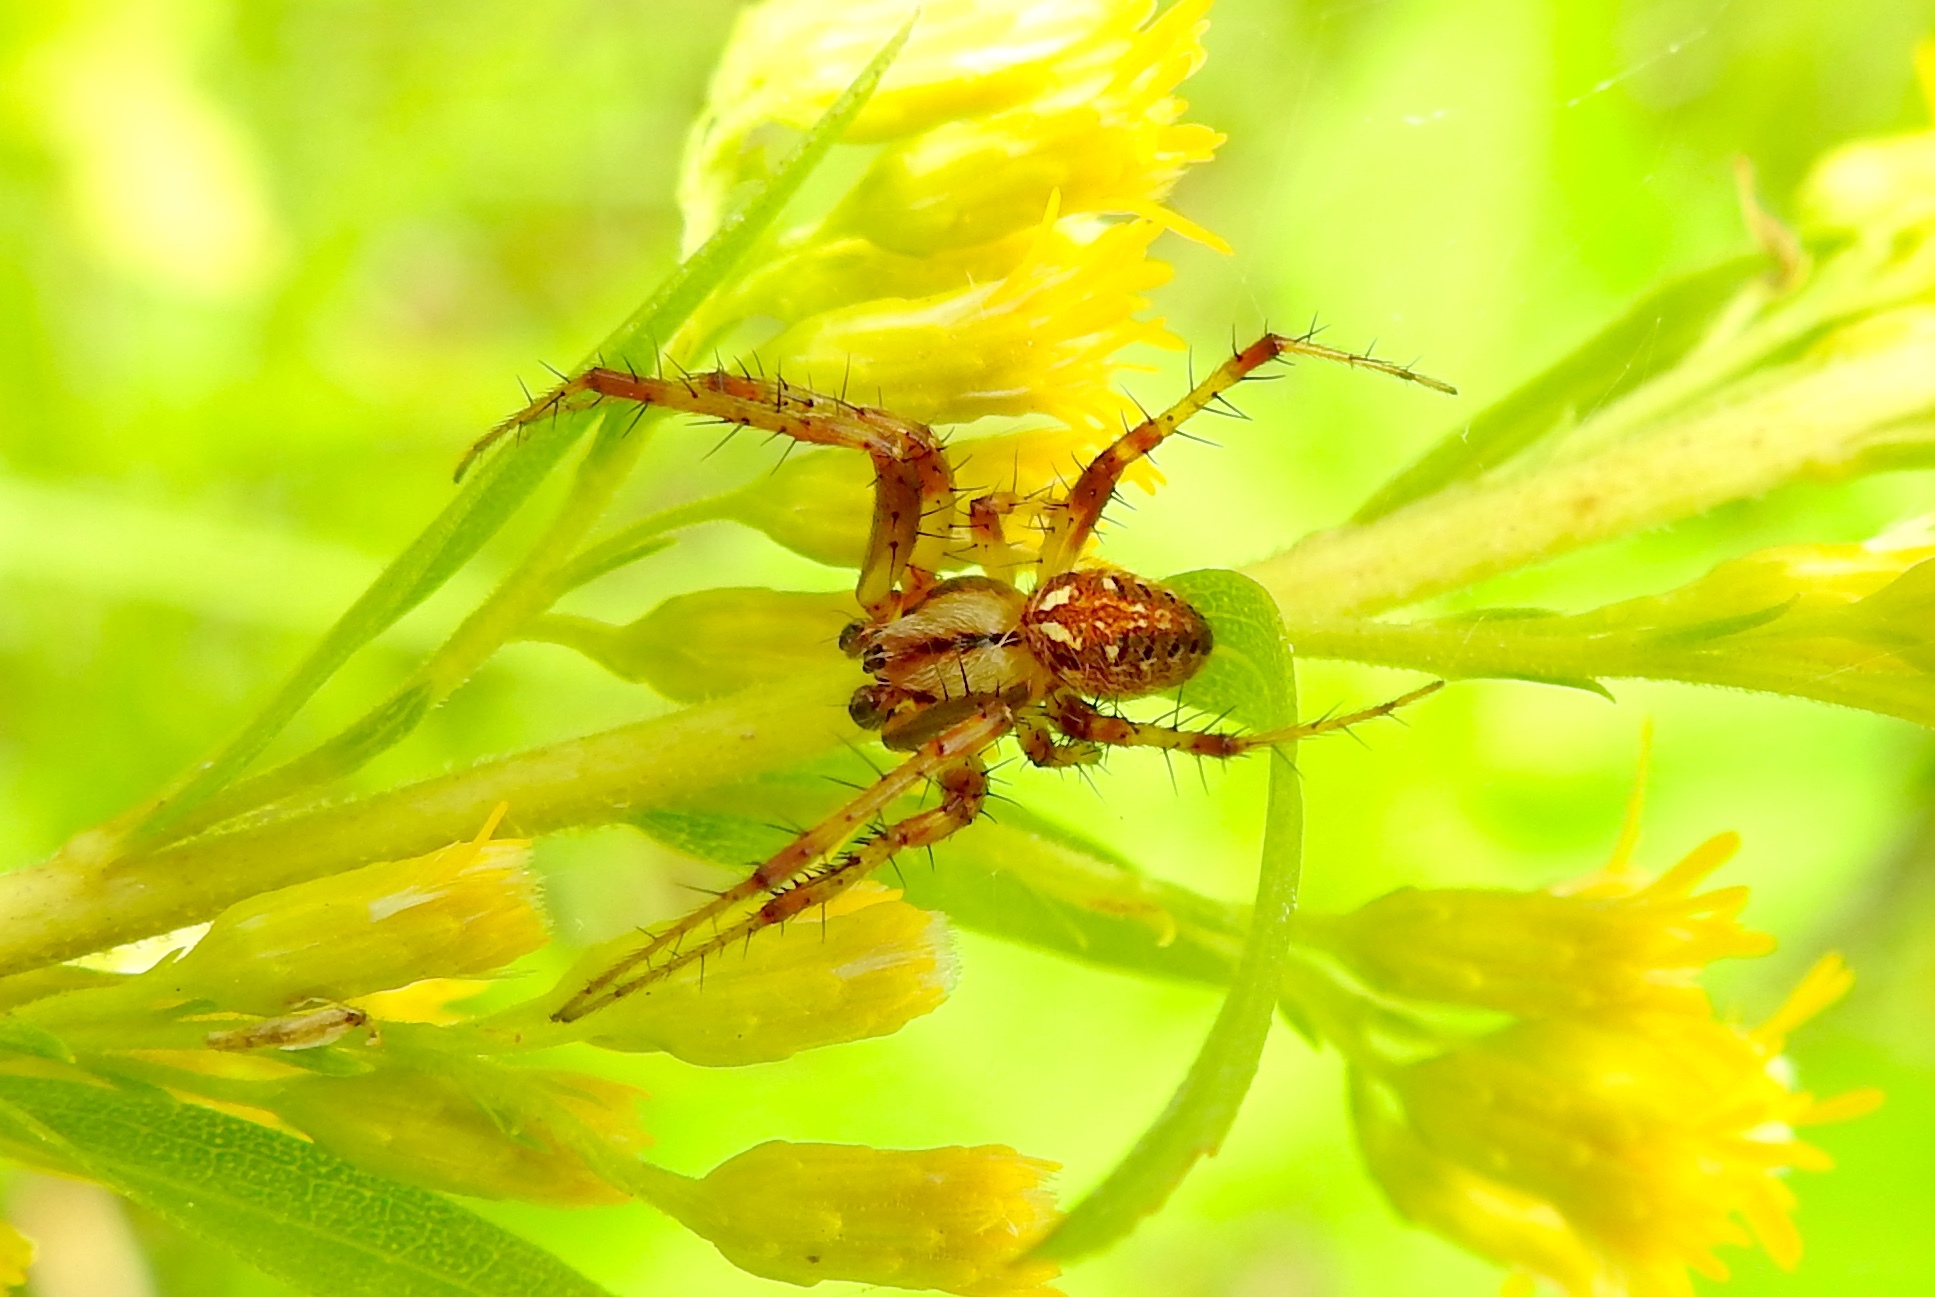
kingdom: Animalia
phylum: Arthropoda
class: Arachnida
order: Araneae
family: Araneidae
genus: Neoscona
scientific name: Neoscona arabesca
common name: Orb weavers
